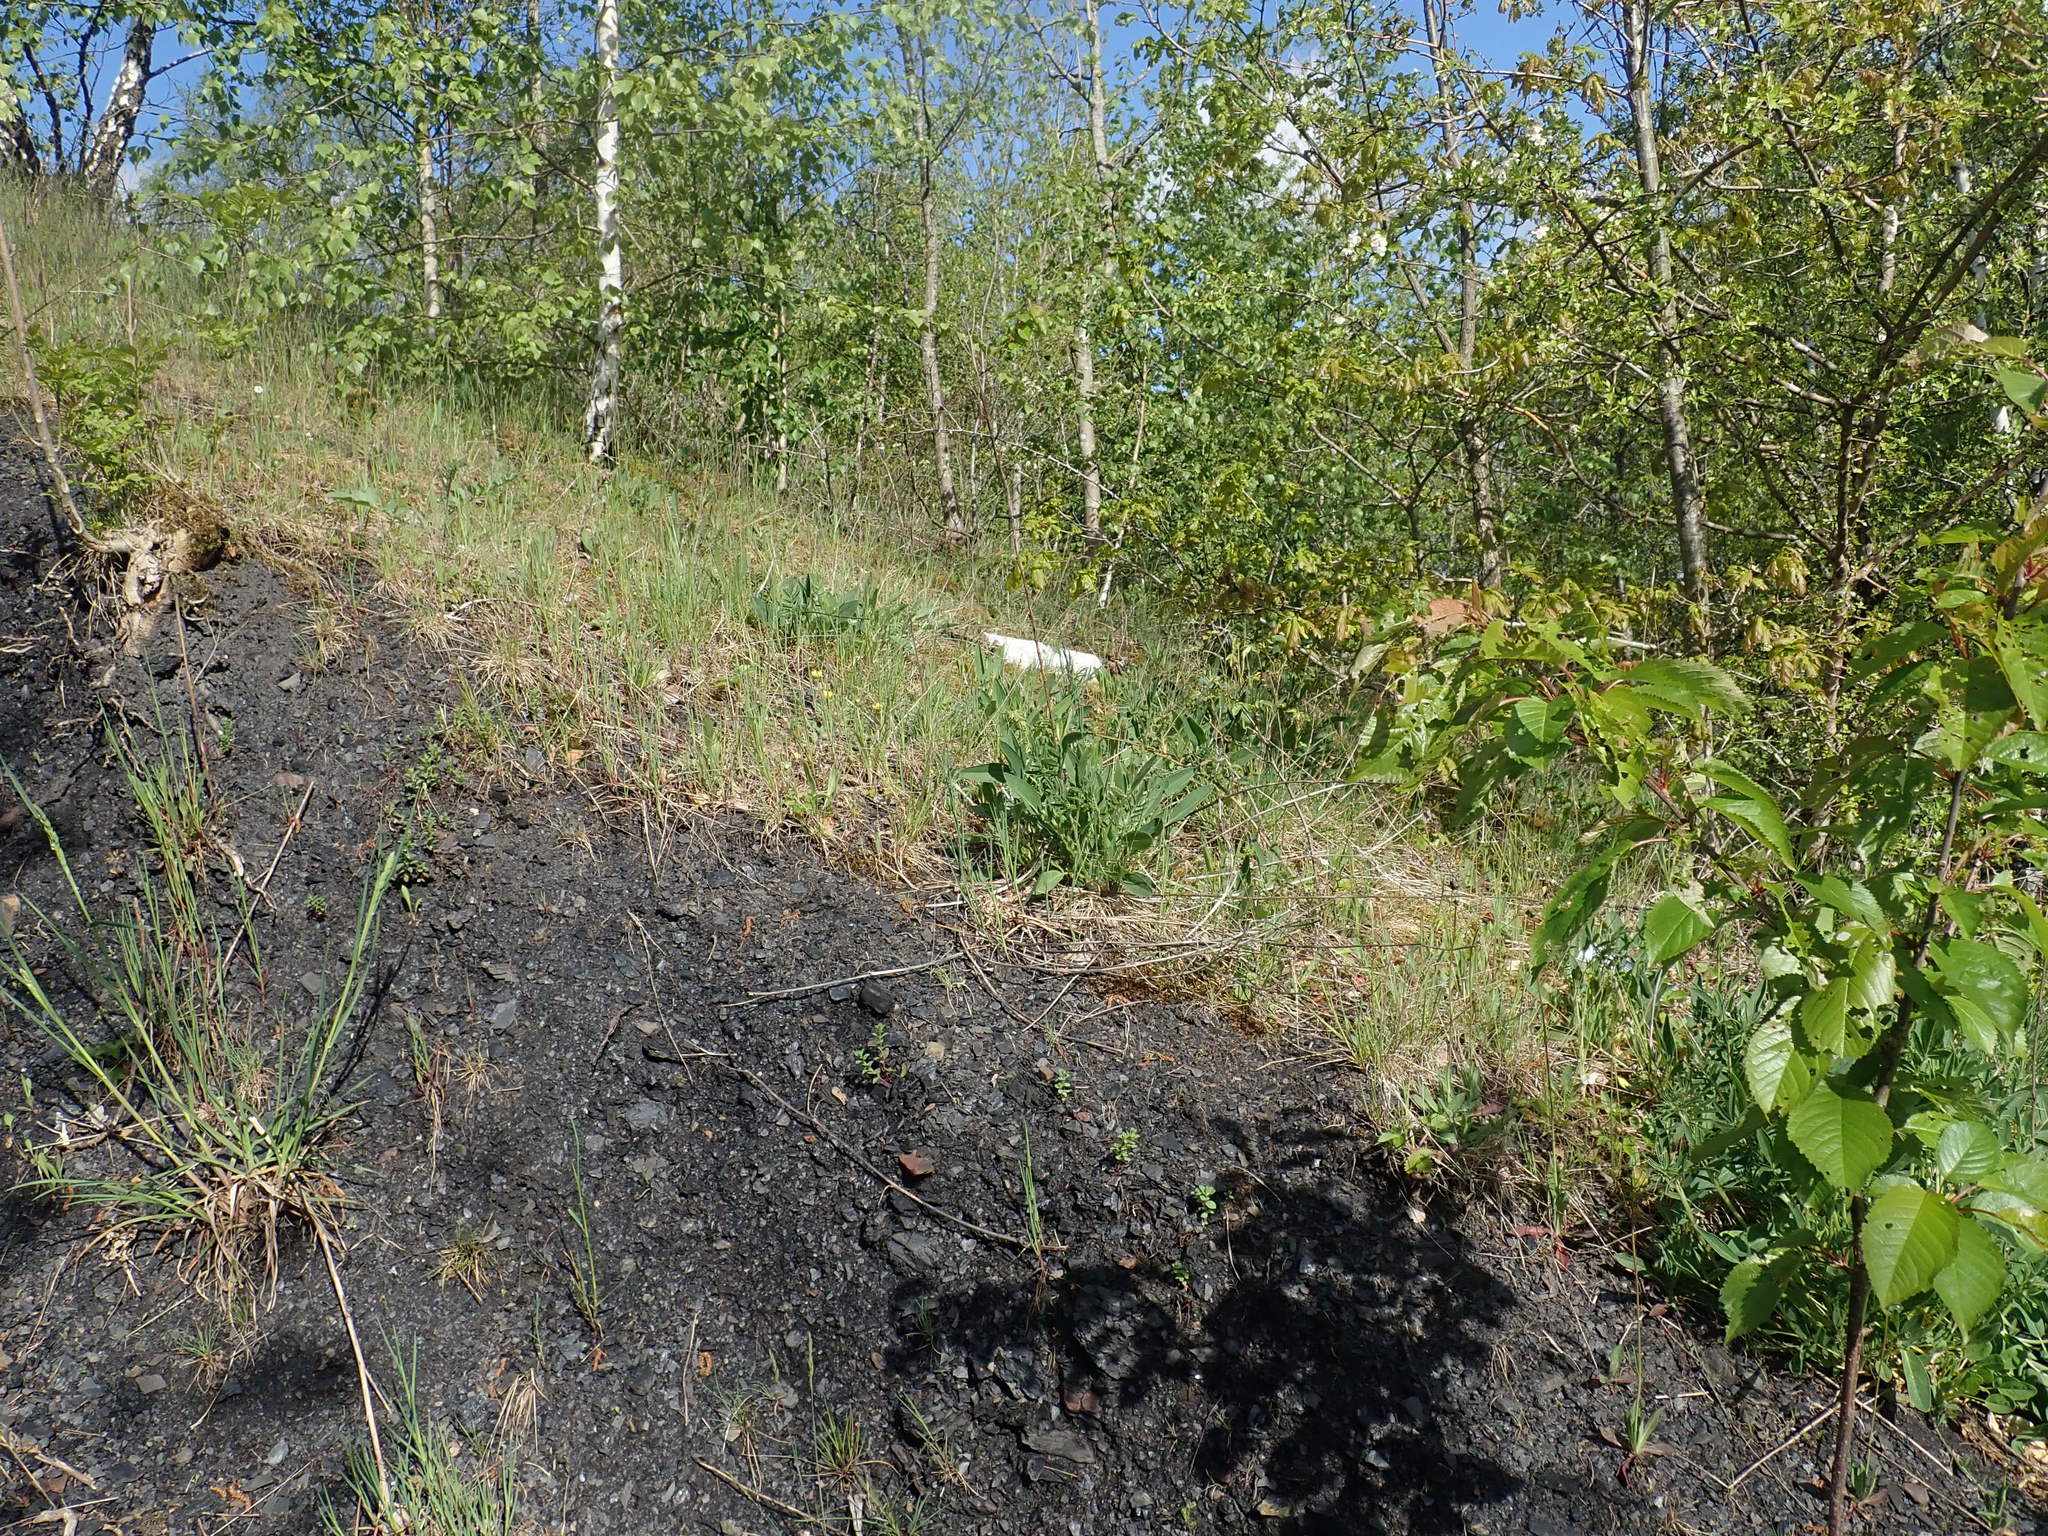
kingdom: Plantae
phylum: Tracheophyta
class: Magnoliopsida
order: Fabales
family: Fabaceae
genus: Anthyllis
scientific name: Anthyllis vulneraria
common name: Kidney vetch
